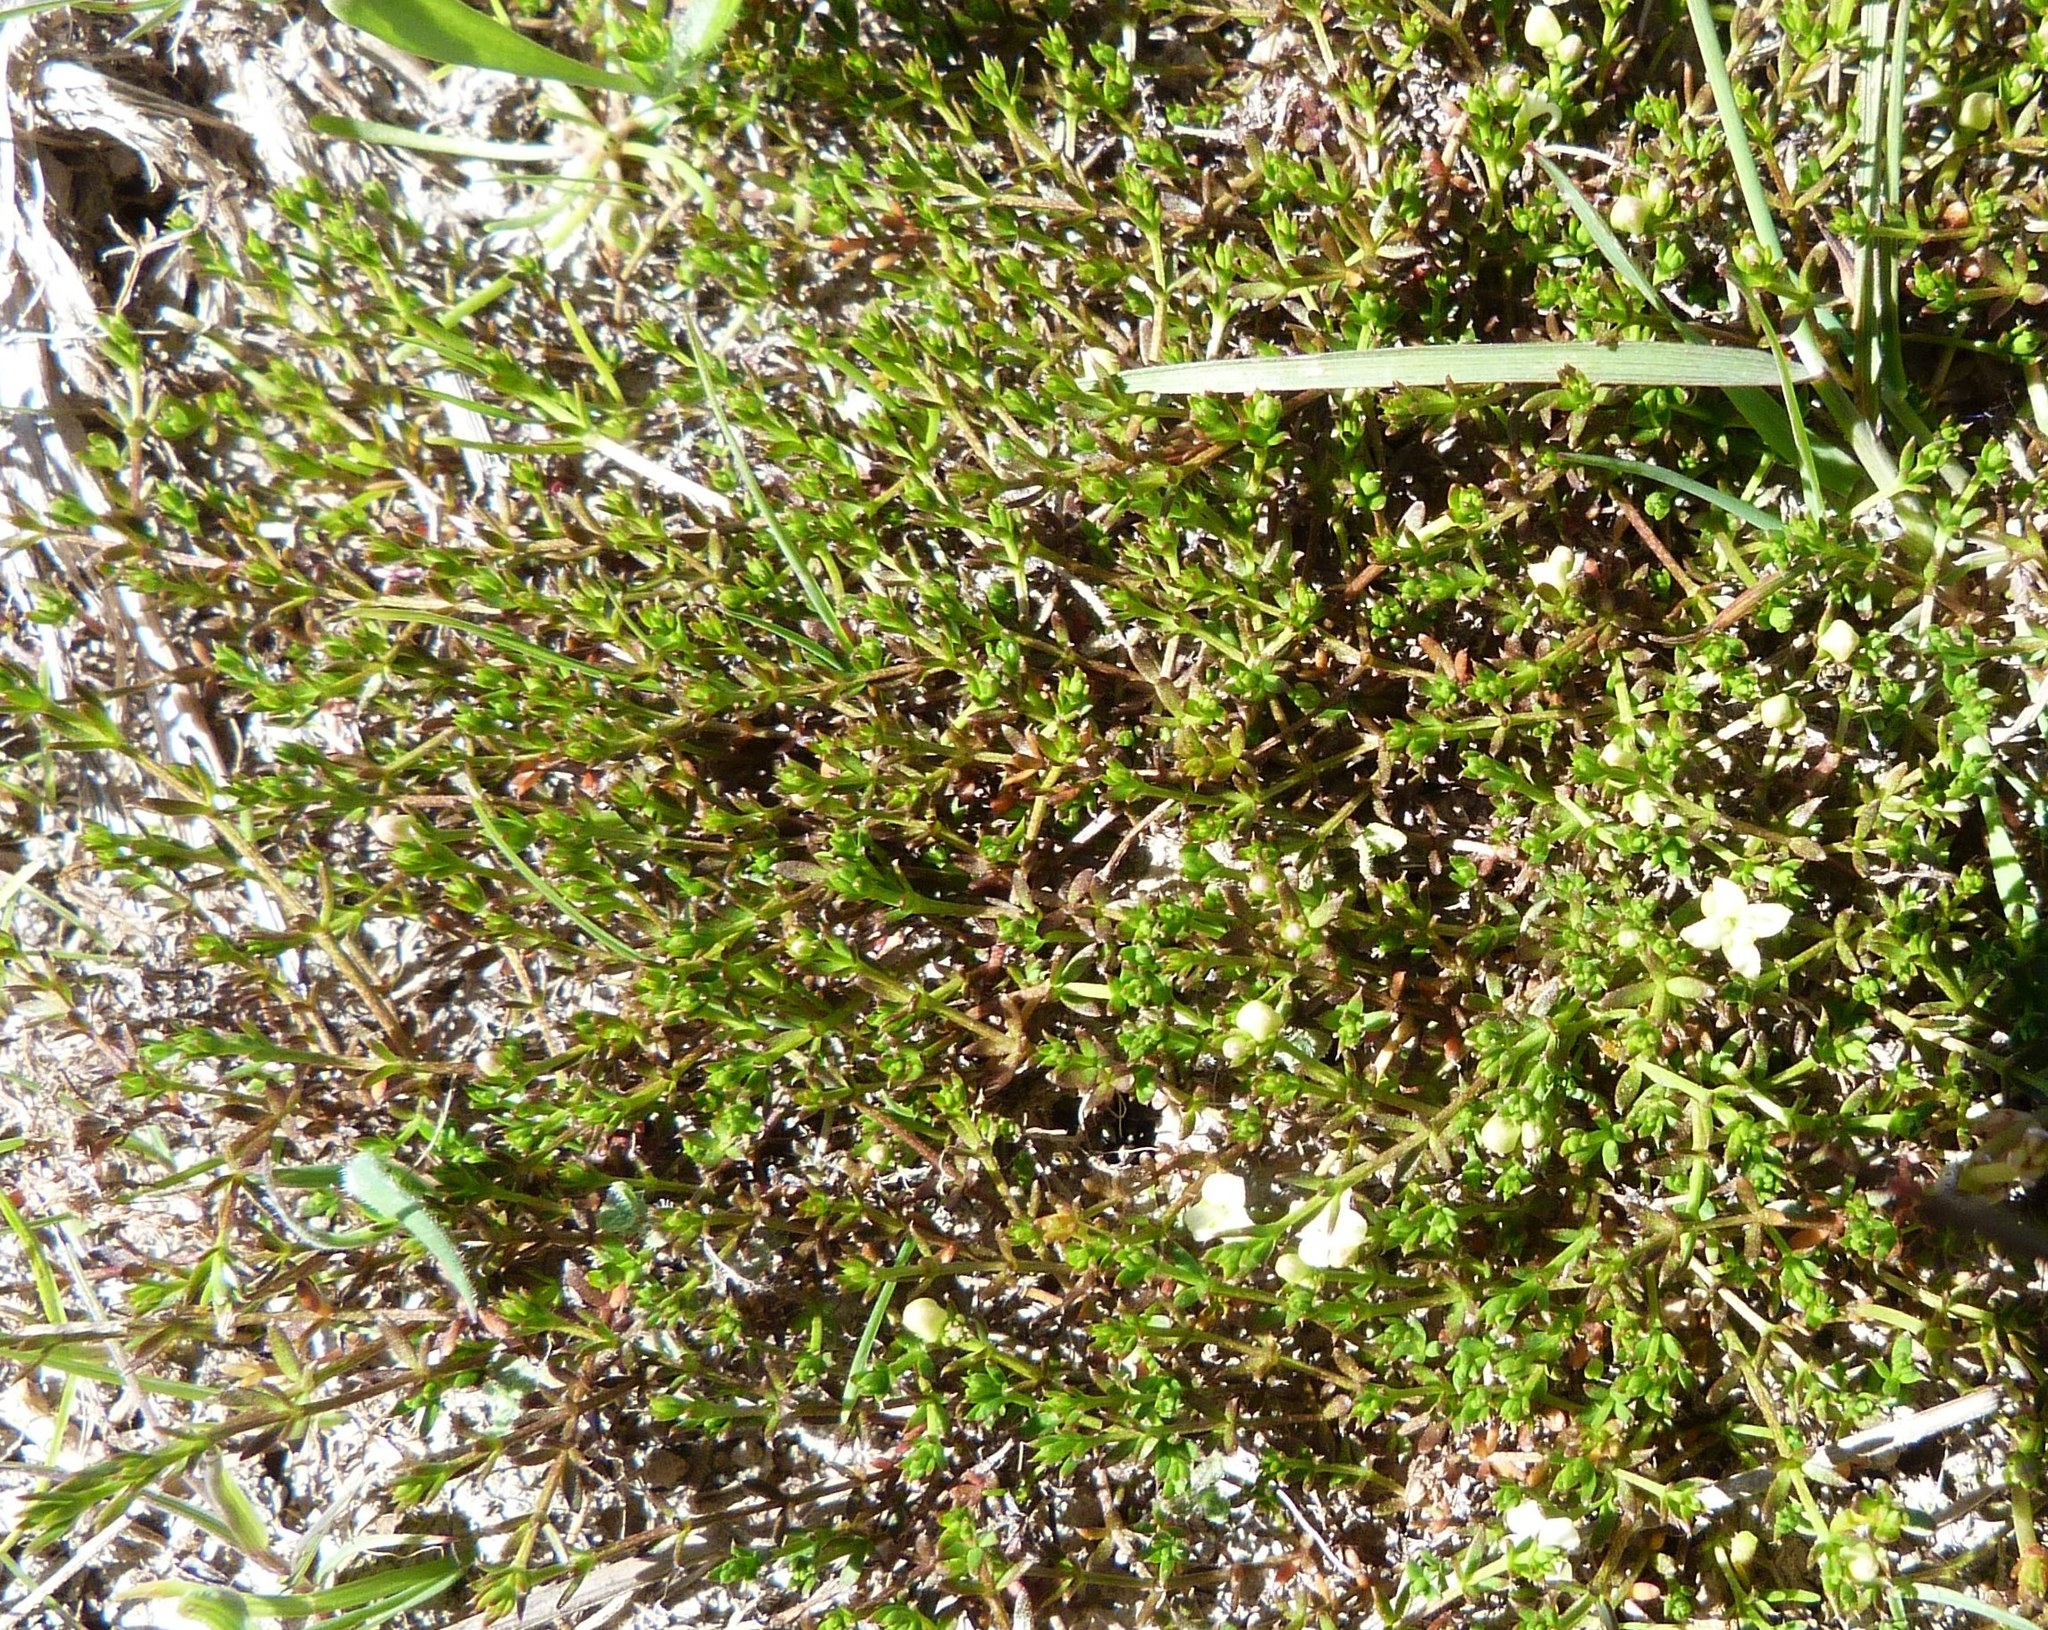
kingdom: Plantae
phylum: Tracheophyta
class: Magnoliopsida
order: Gentianales
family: Rubiaceae
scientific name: Rubiaceae
